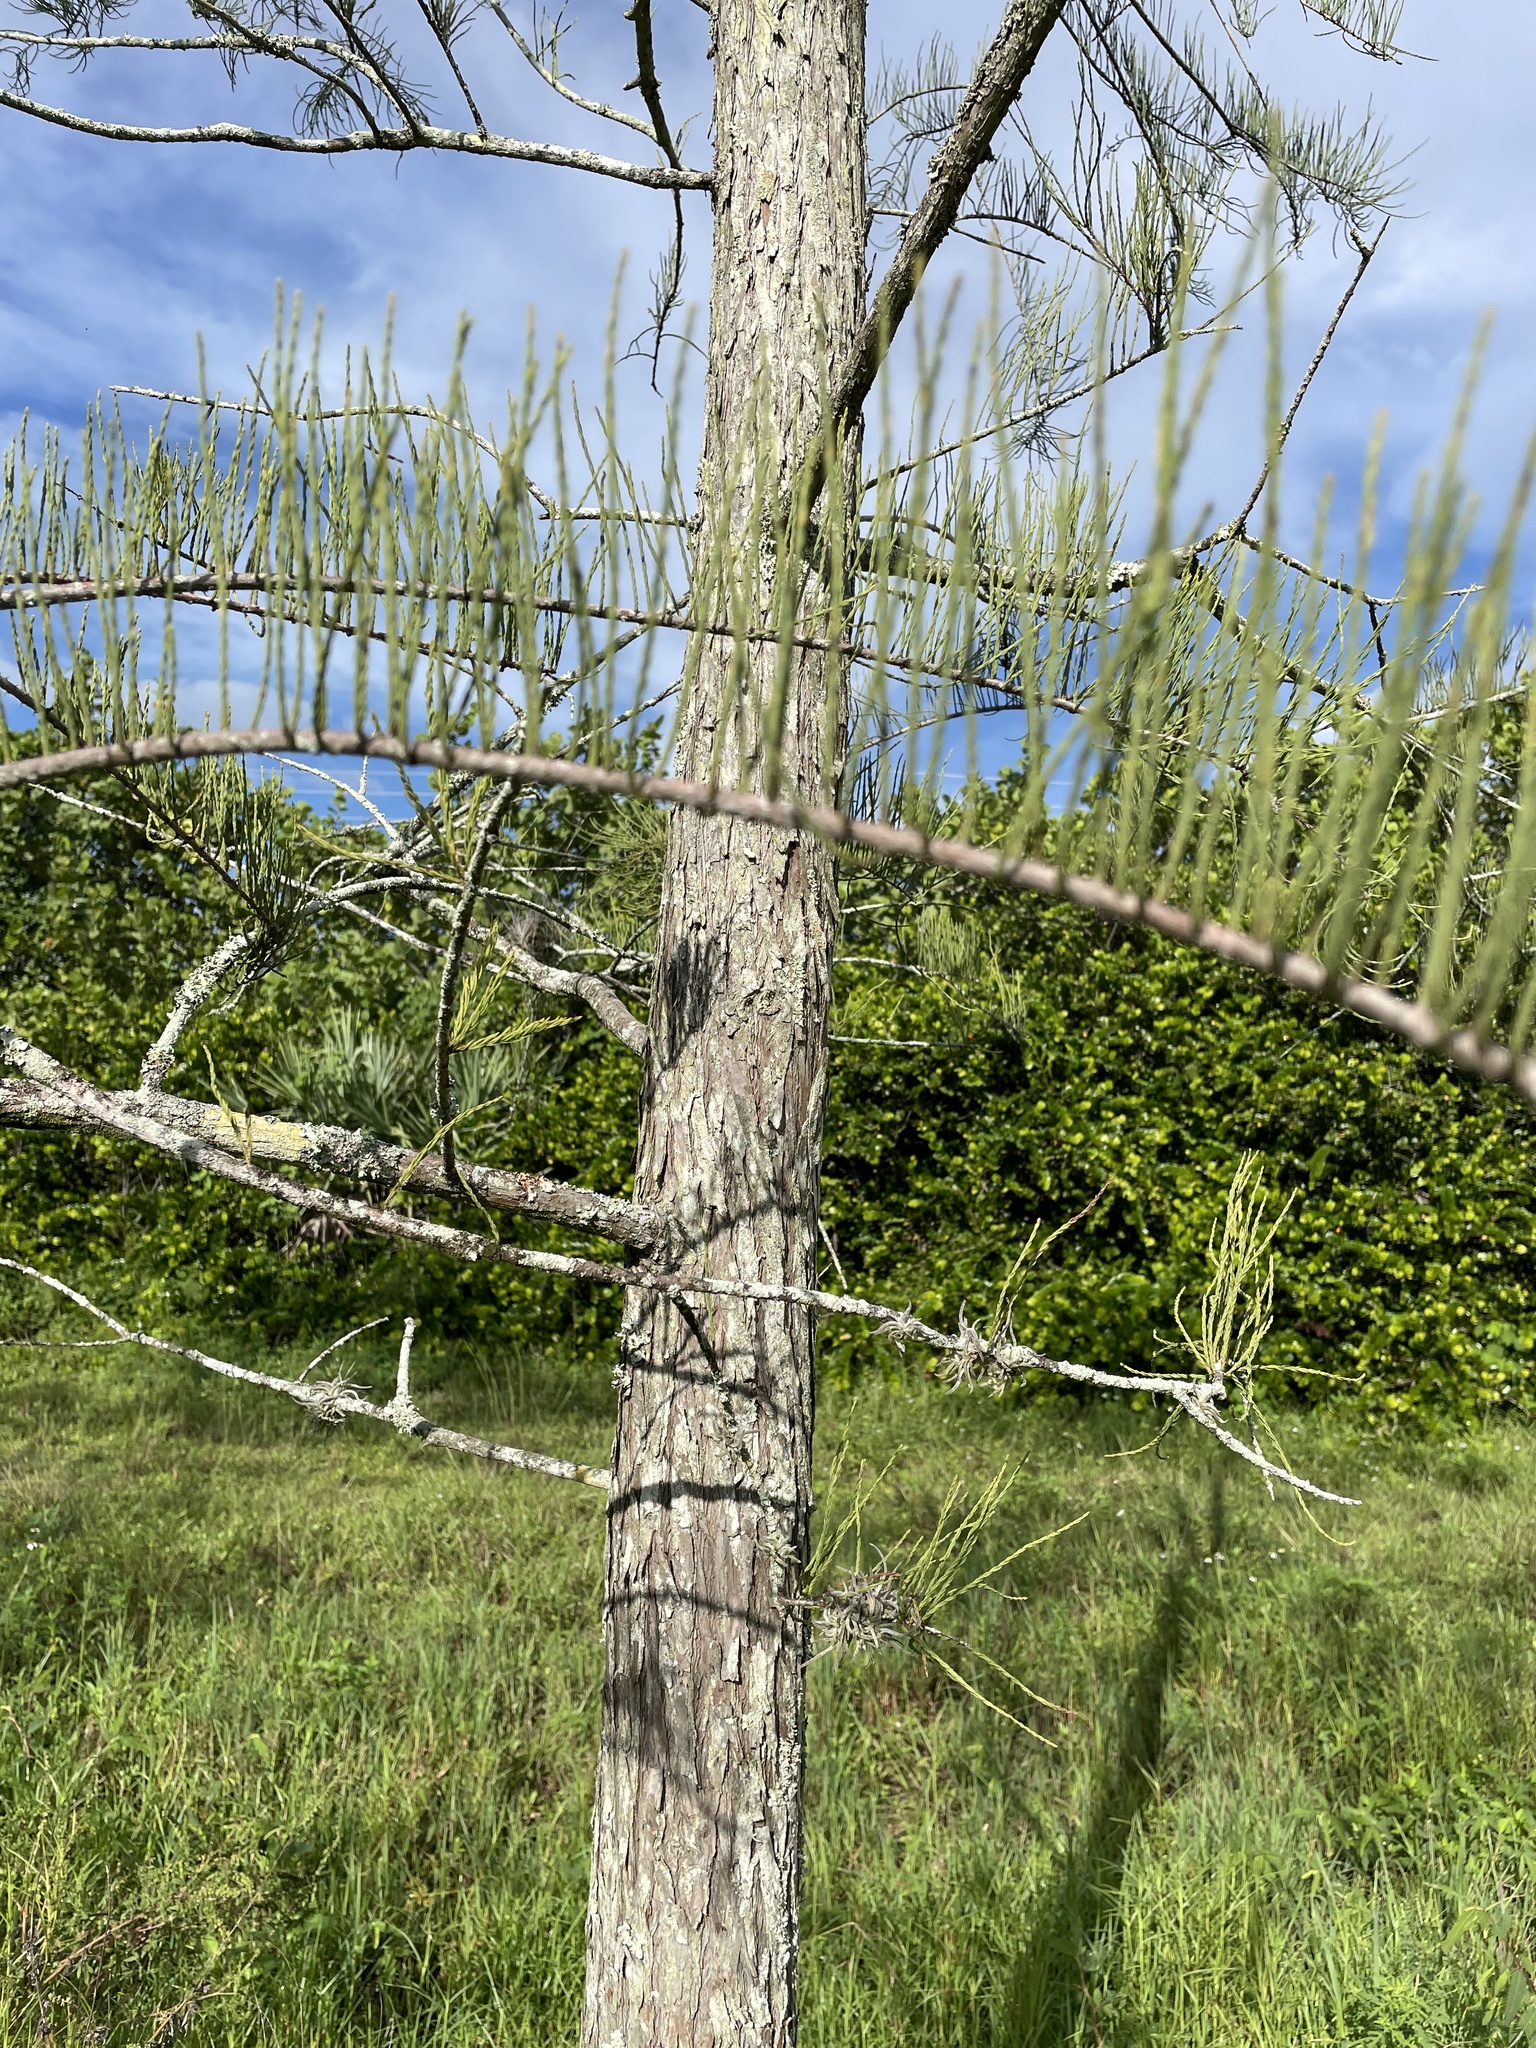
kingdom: Plantae
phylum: Tracheophyta
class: Pinopsida
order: Pinales
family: Cupressaceae
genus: Taxodium
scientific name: Taxodium distichum
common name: Bald cypress
